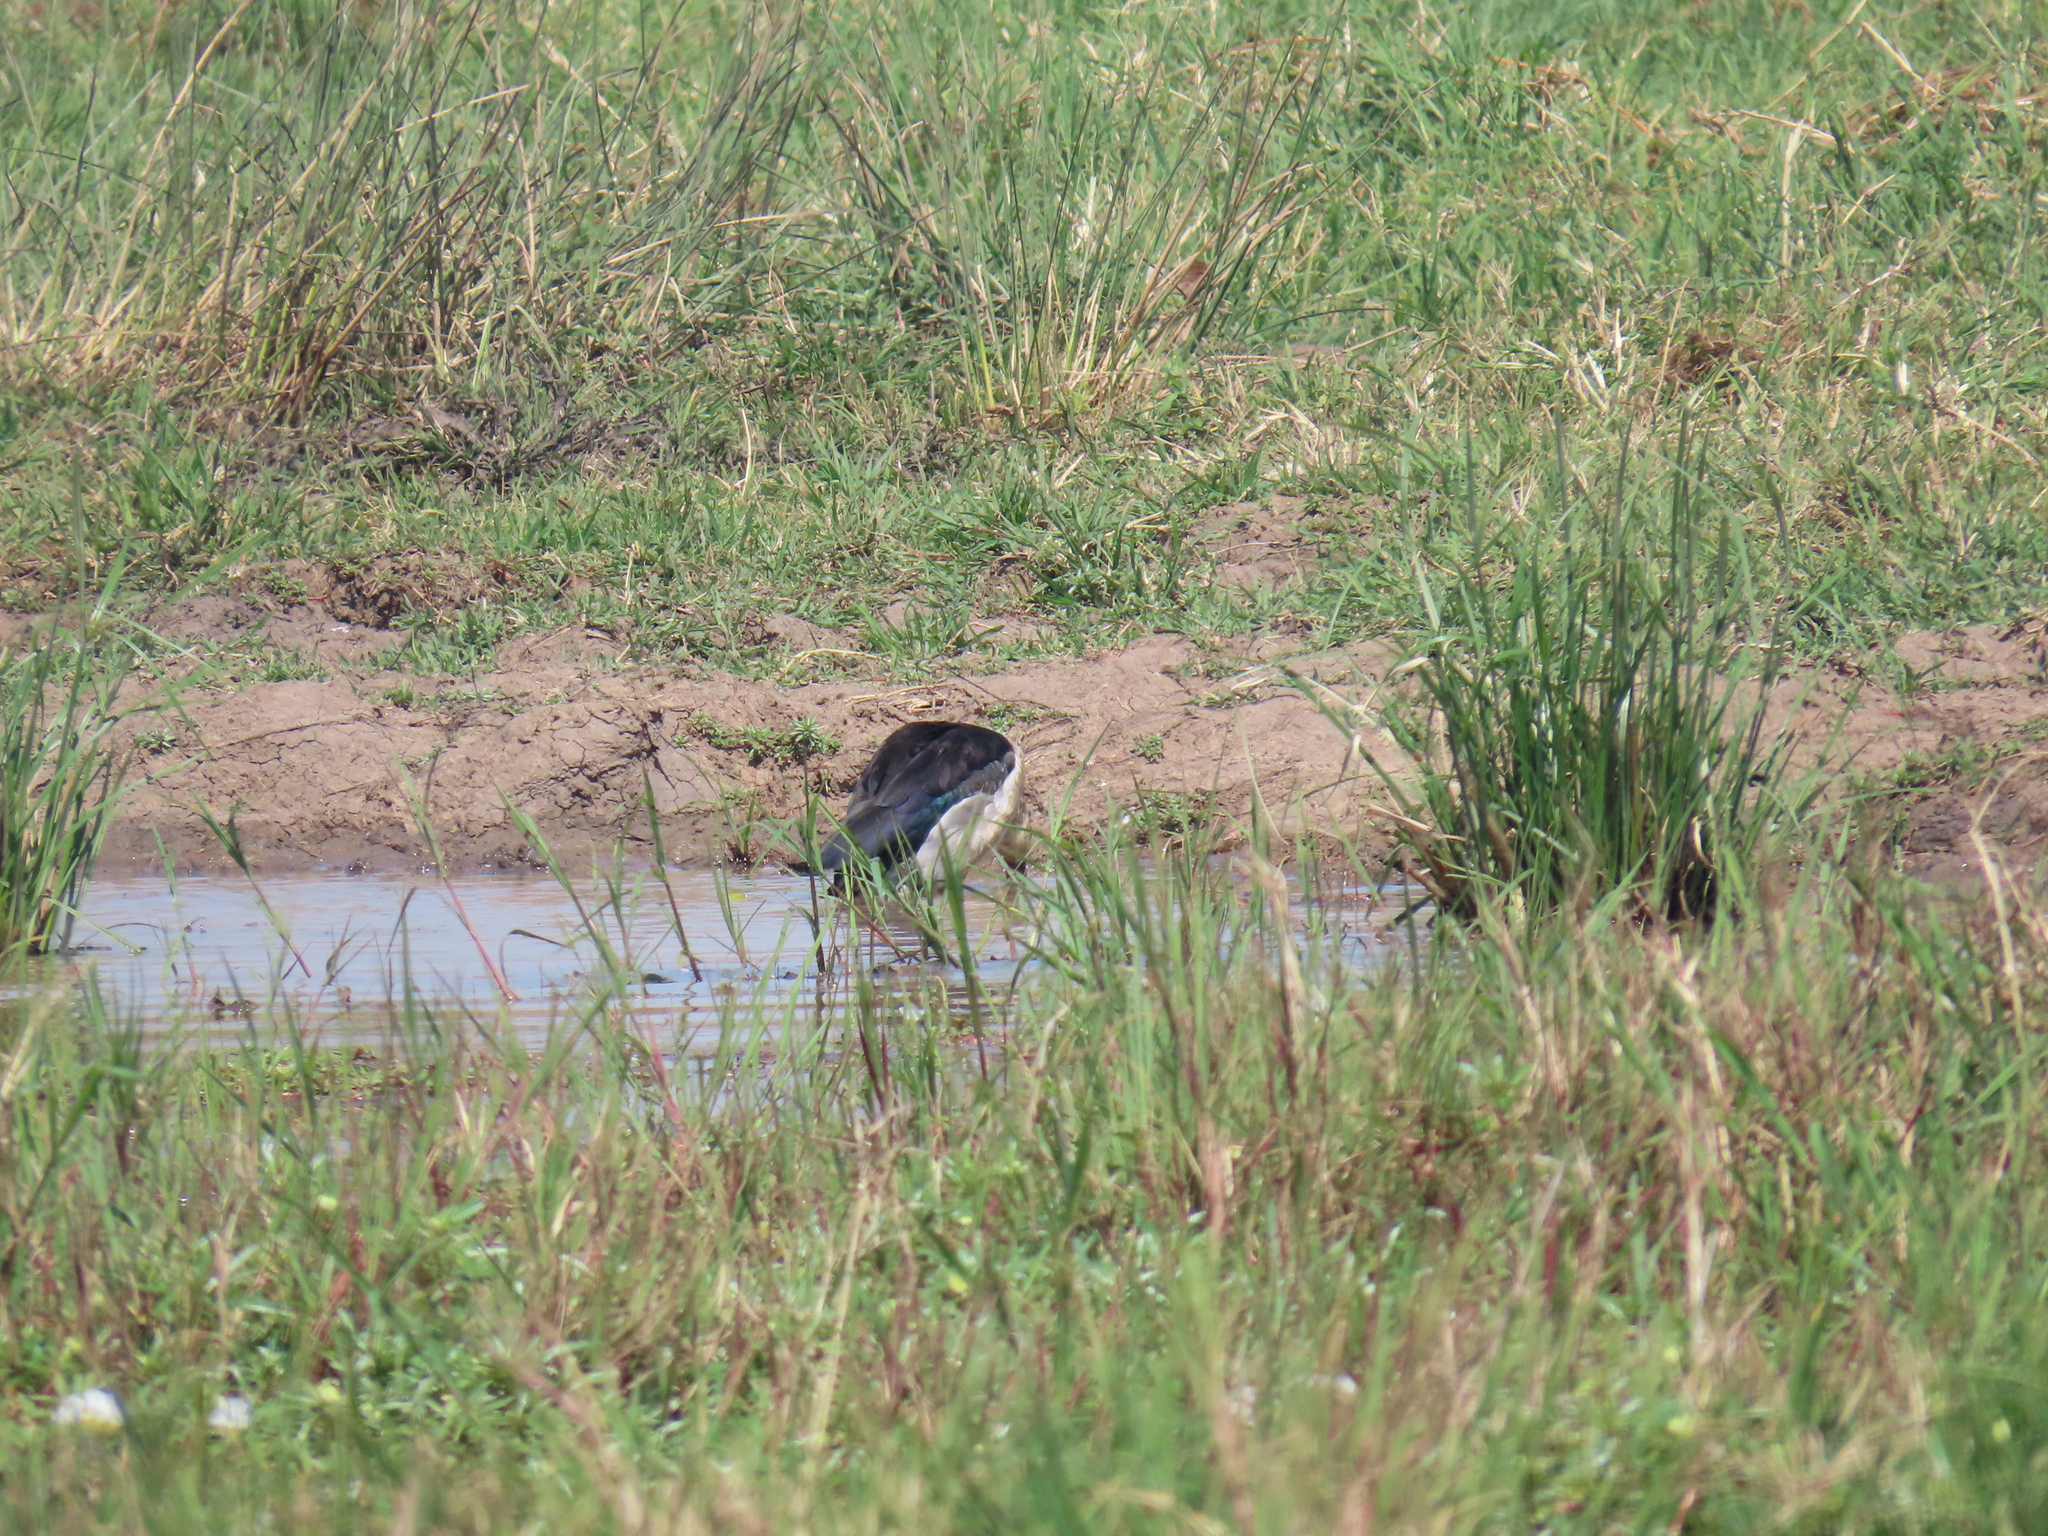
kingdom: Animalia
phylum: Chordata
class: Aves
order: Anseriformes
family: Anatidae
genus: Sarkidiornis
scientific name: Sarkidiornis melanotos
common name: Comb duck
